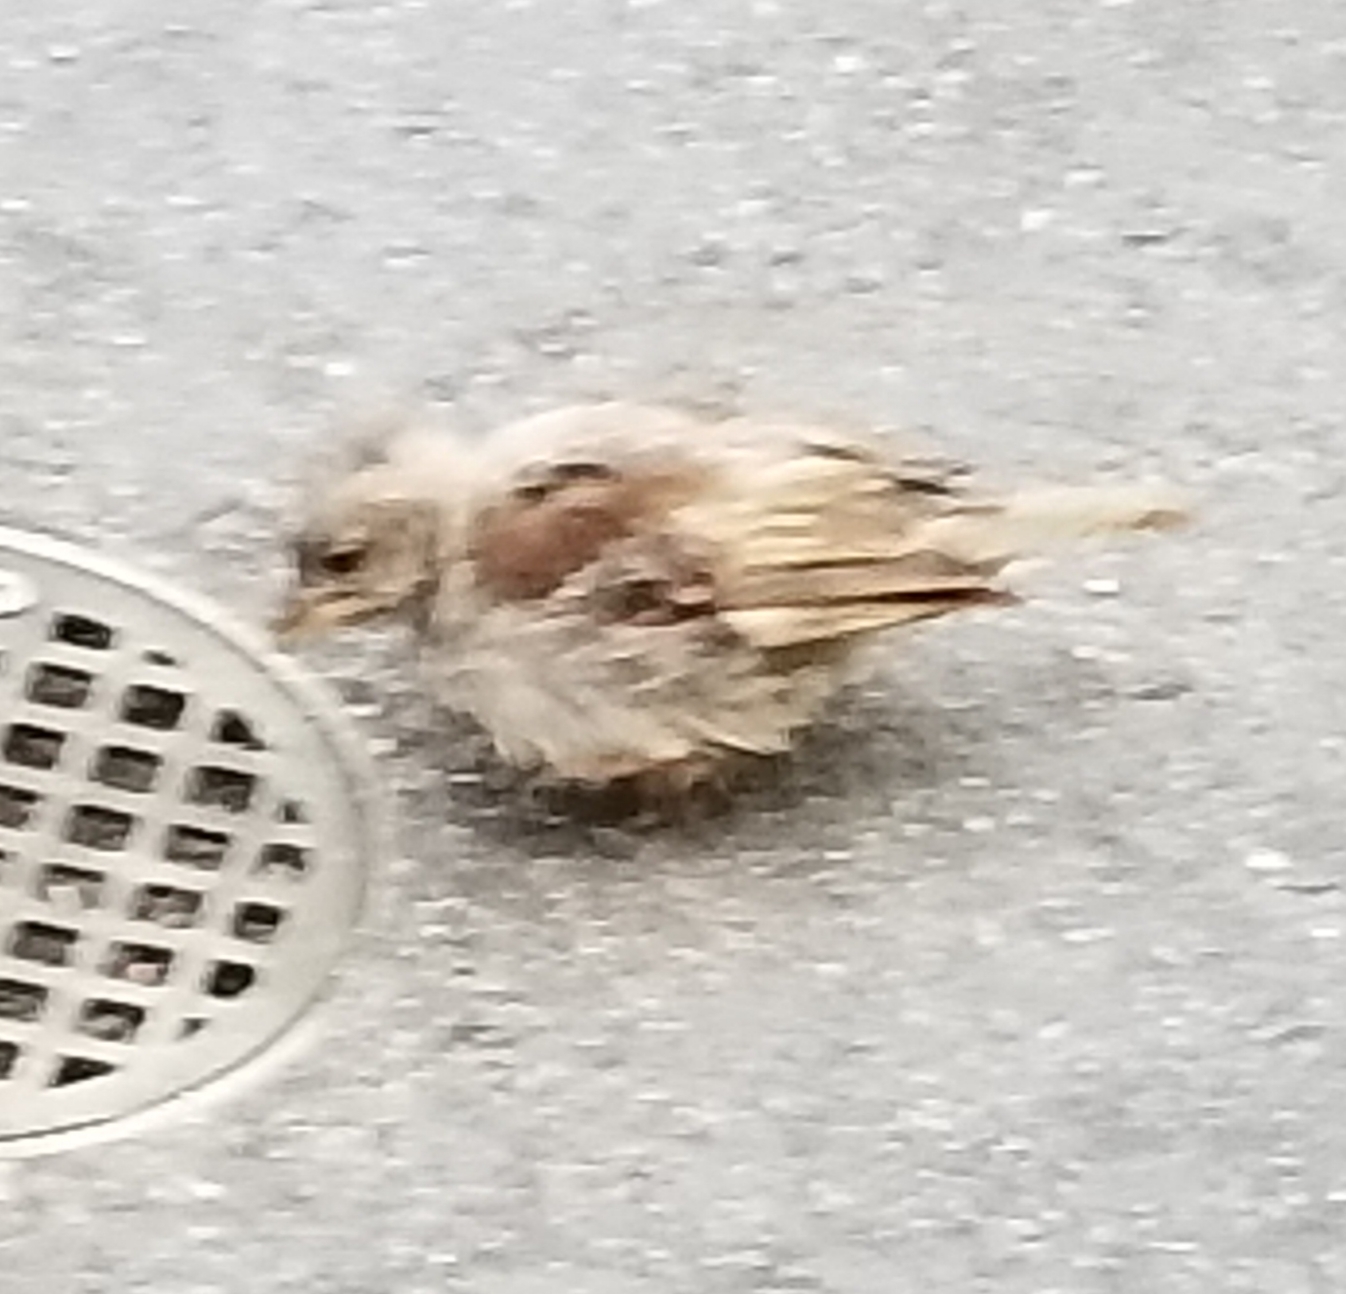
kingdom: Animalia
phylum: Chordata
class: Aves
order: Passeriformes
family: Passeridae
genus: Passer
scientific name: Passer domesticus
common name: House sparrow
